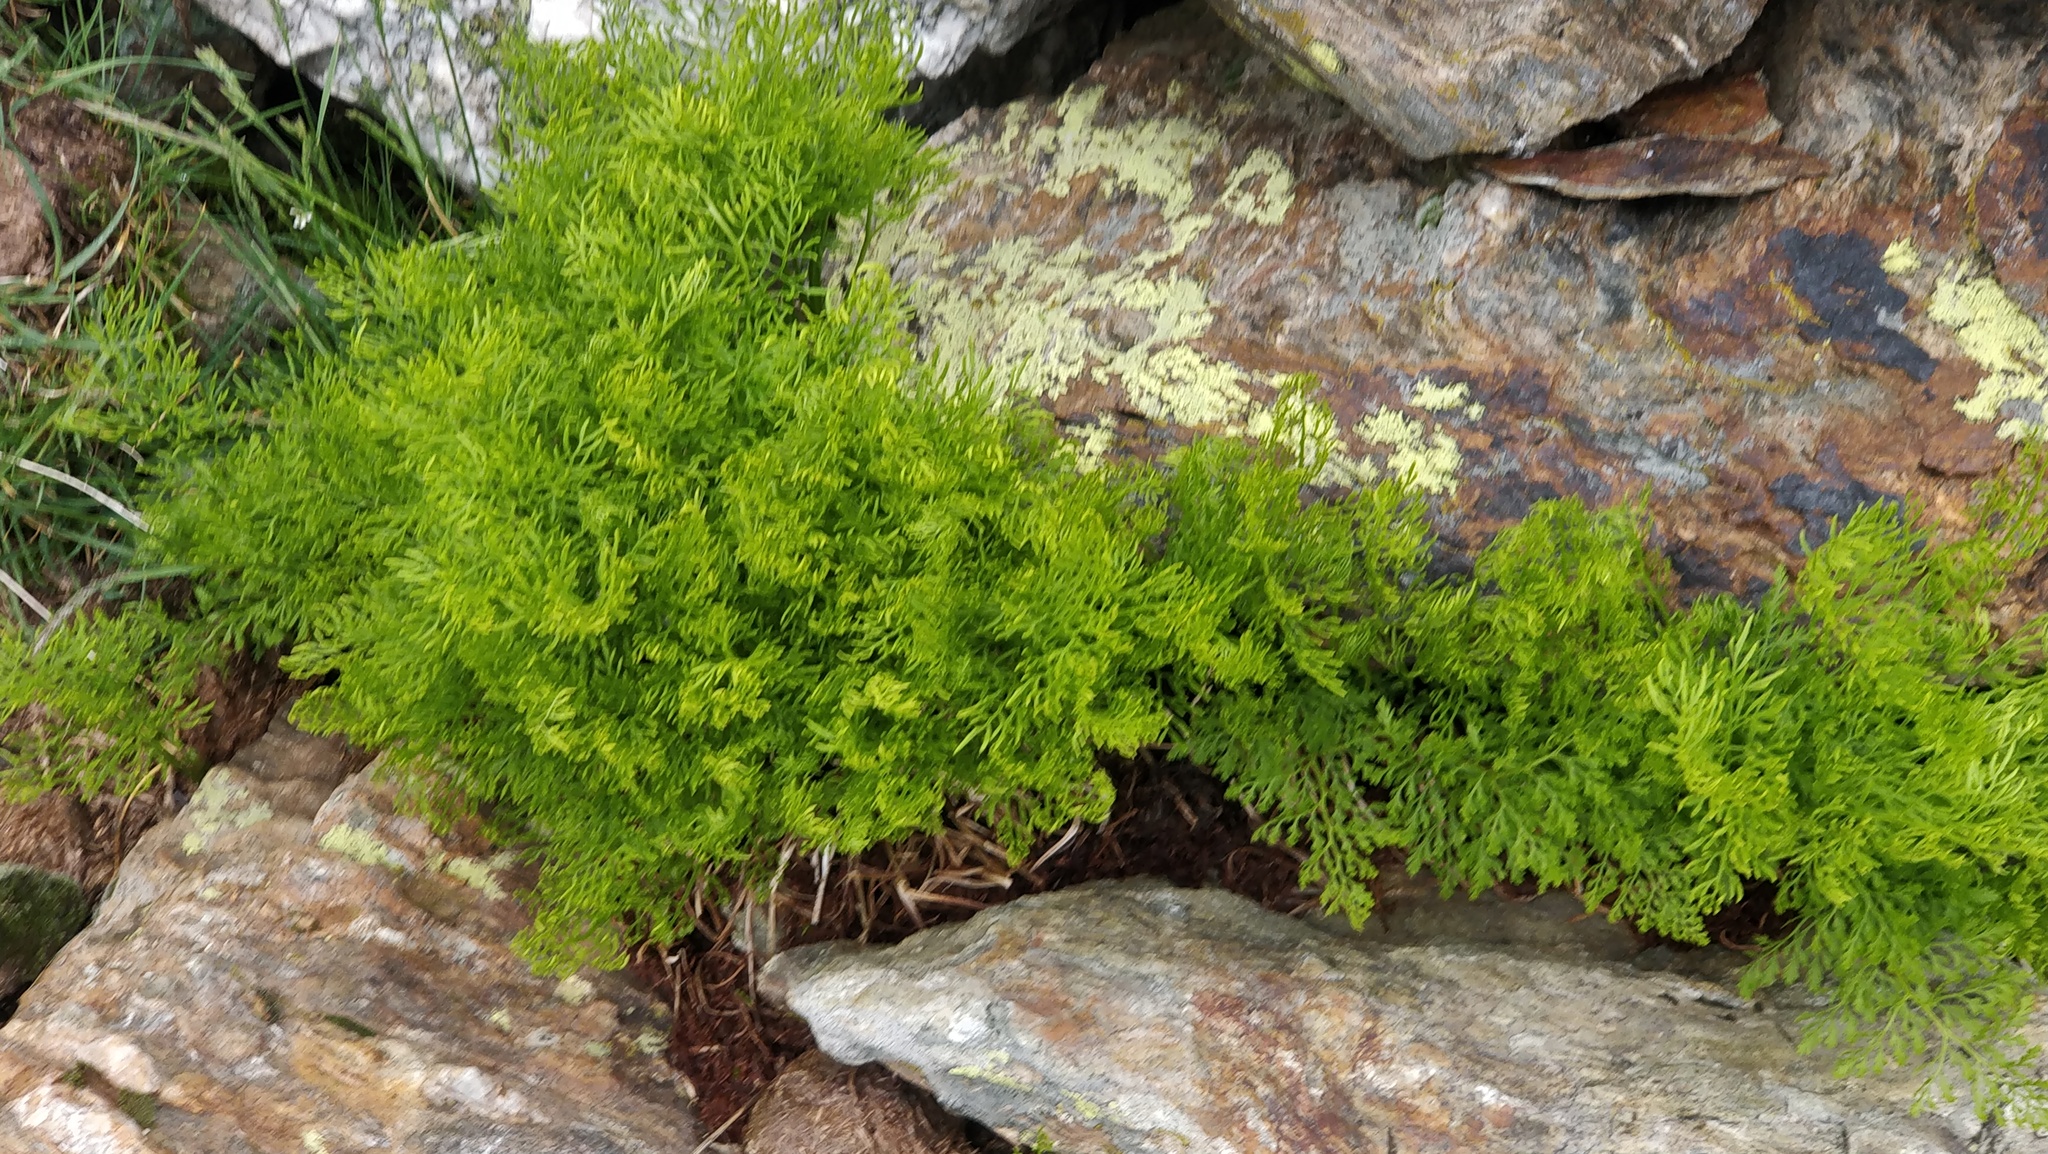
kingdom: Plantae
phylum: Tracheophyta
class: Polypodiopsida
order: Polypodiales
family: Pteridaceae
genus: Cryptogramma
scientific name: Cryptogramma crispa
